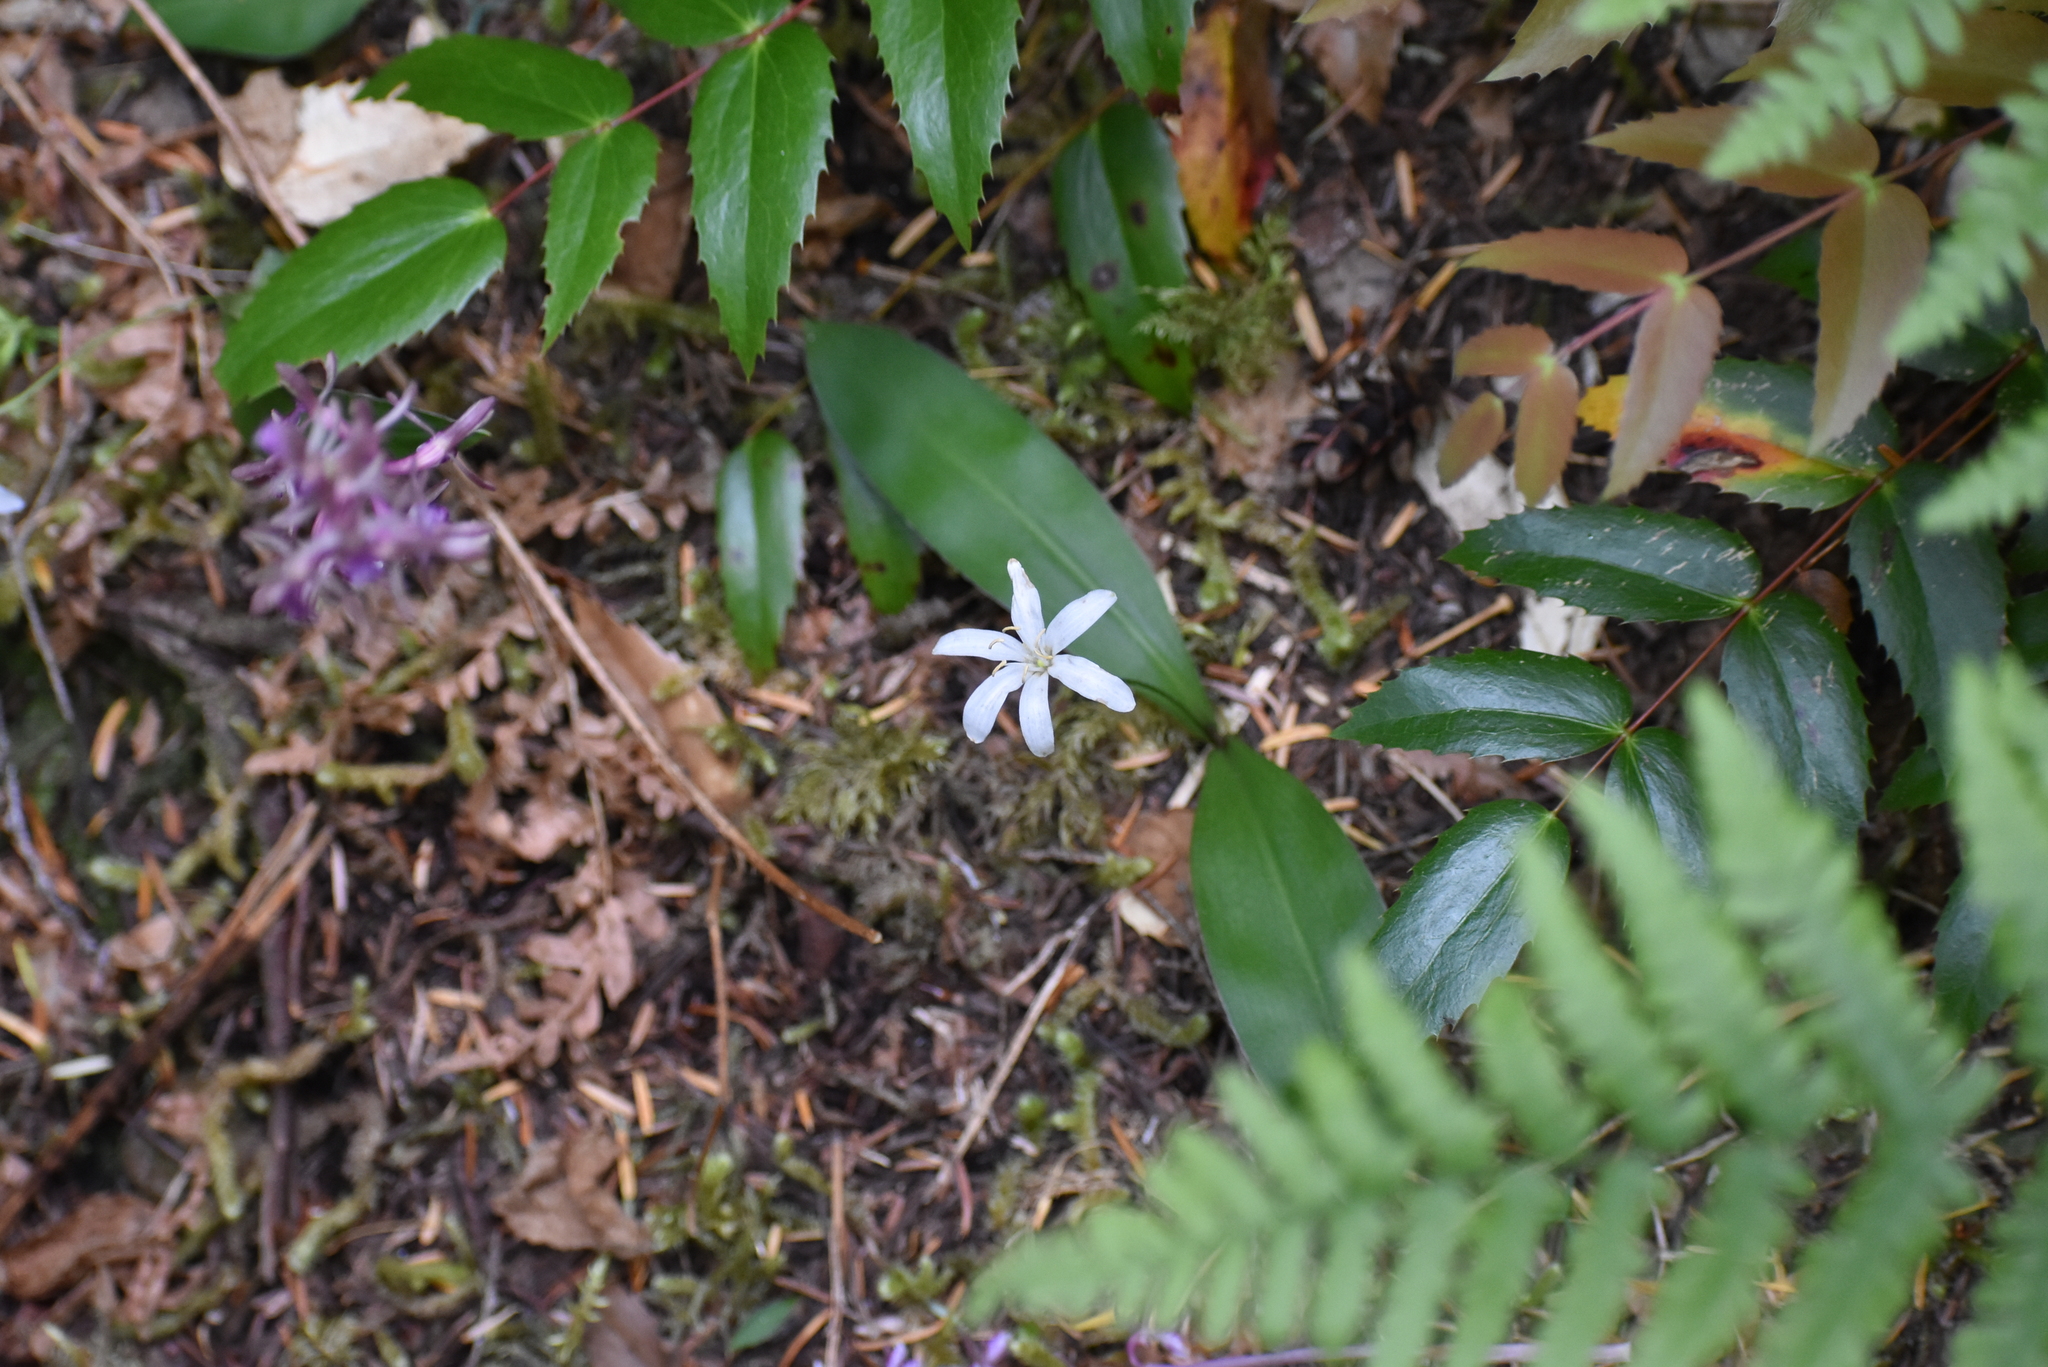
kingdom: Plantae
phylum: Tracheophyta
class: Liliopsida
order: Liliales
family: Liliaceae
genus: Clintonia
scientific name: Clintonia uniflora
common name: Queen's cup
